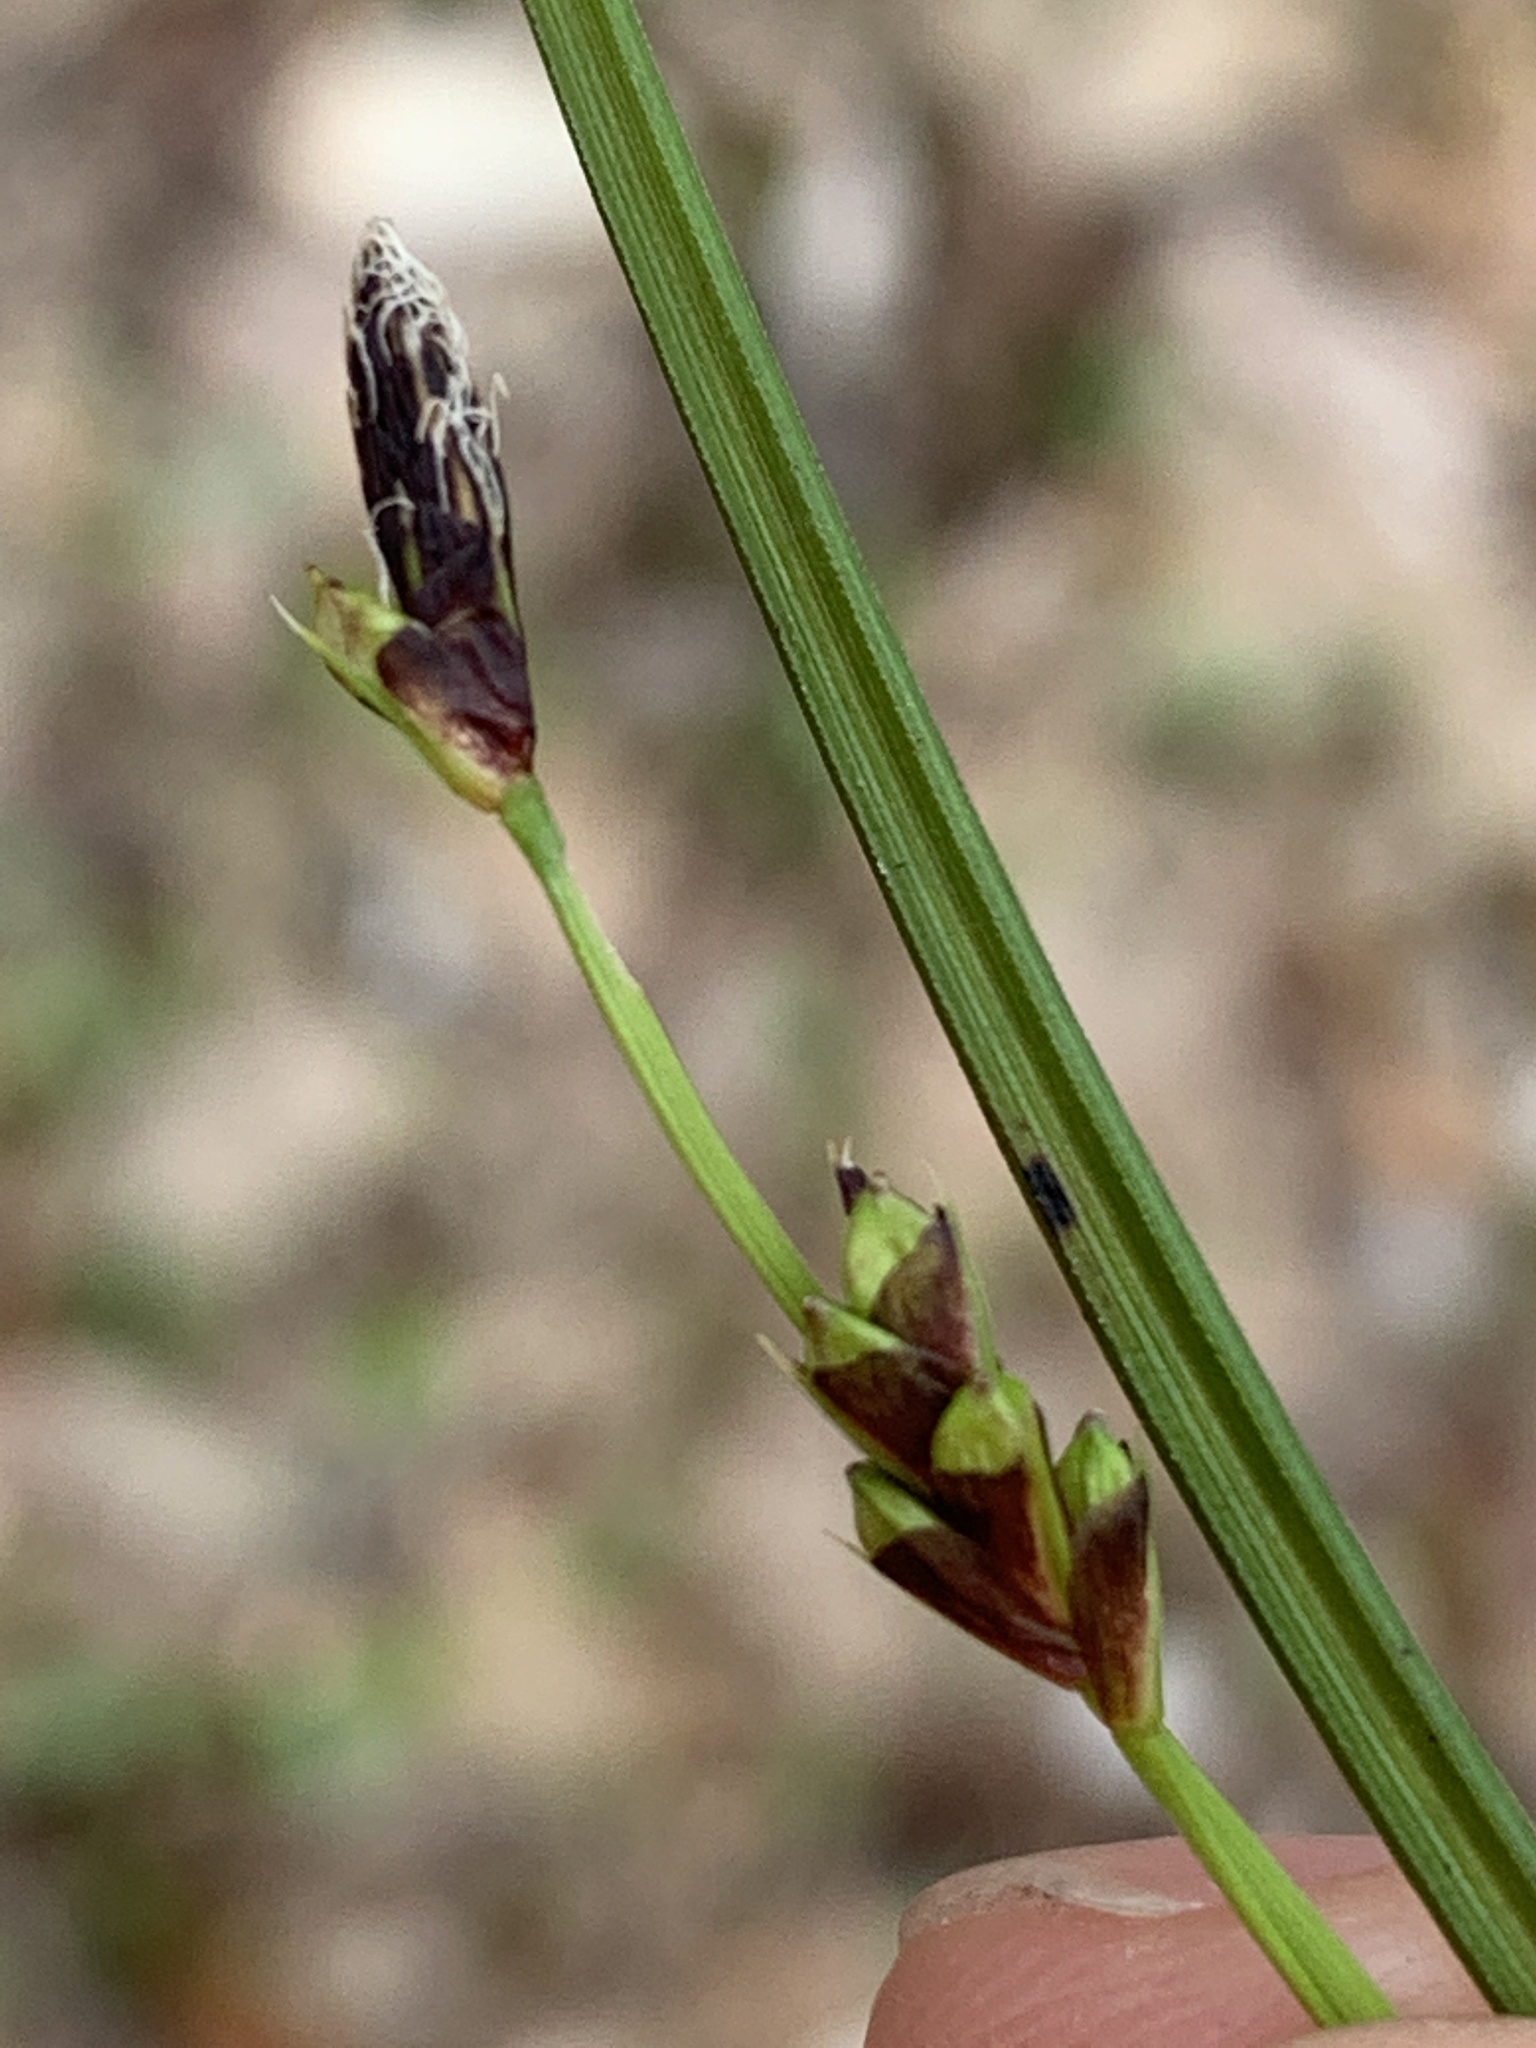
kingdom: Plantae
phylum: Tracheophyta
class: Liliopsida
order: Poales
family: Cyperaceae
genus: Carex
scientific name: Carex pedunculata
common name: Pedunculate sedge
